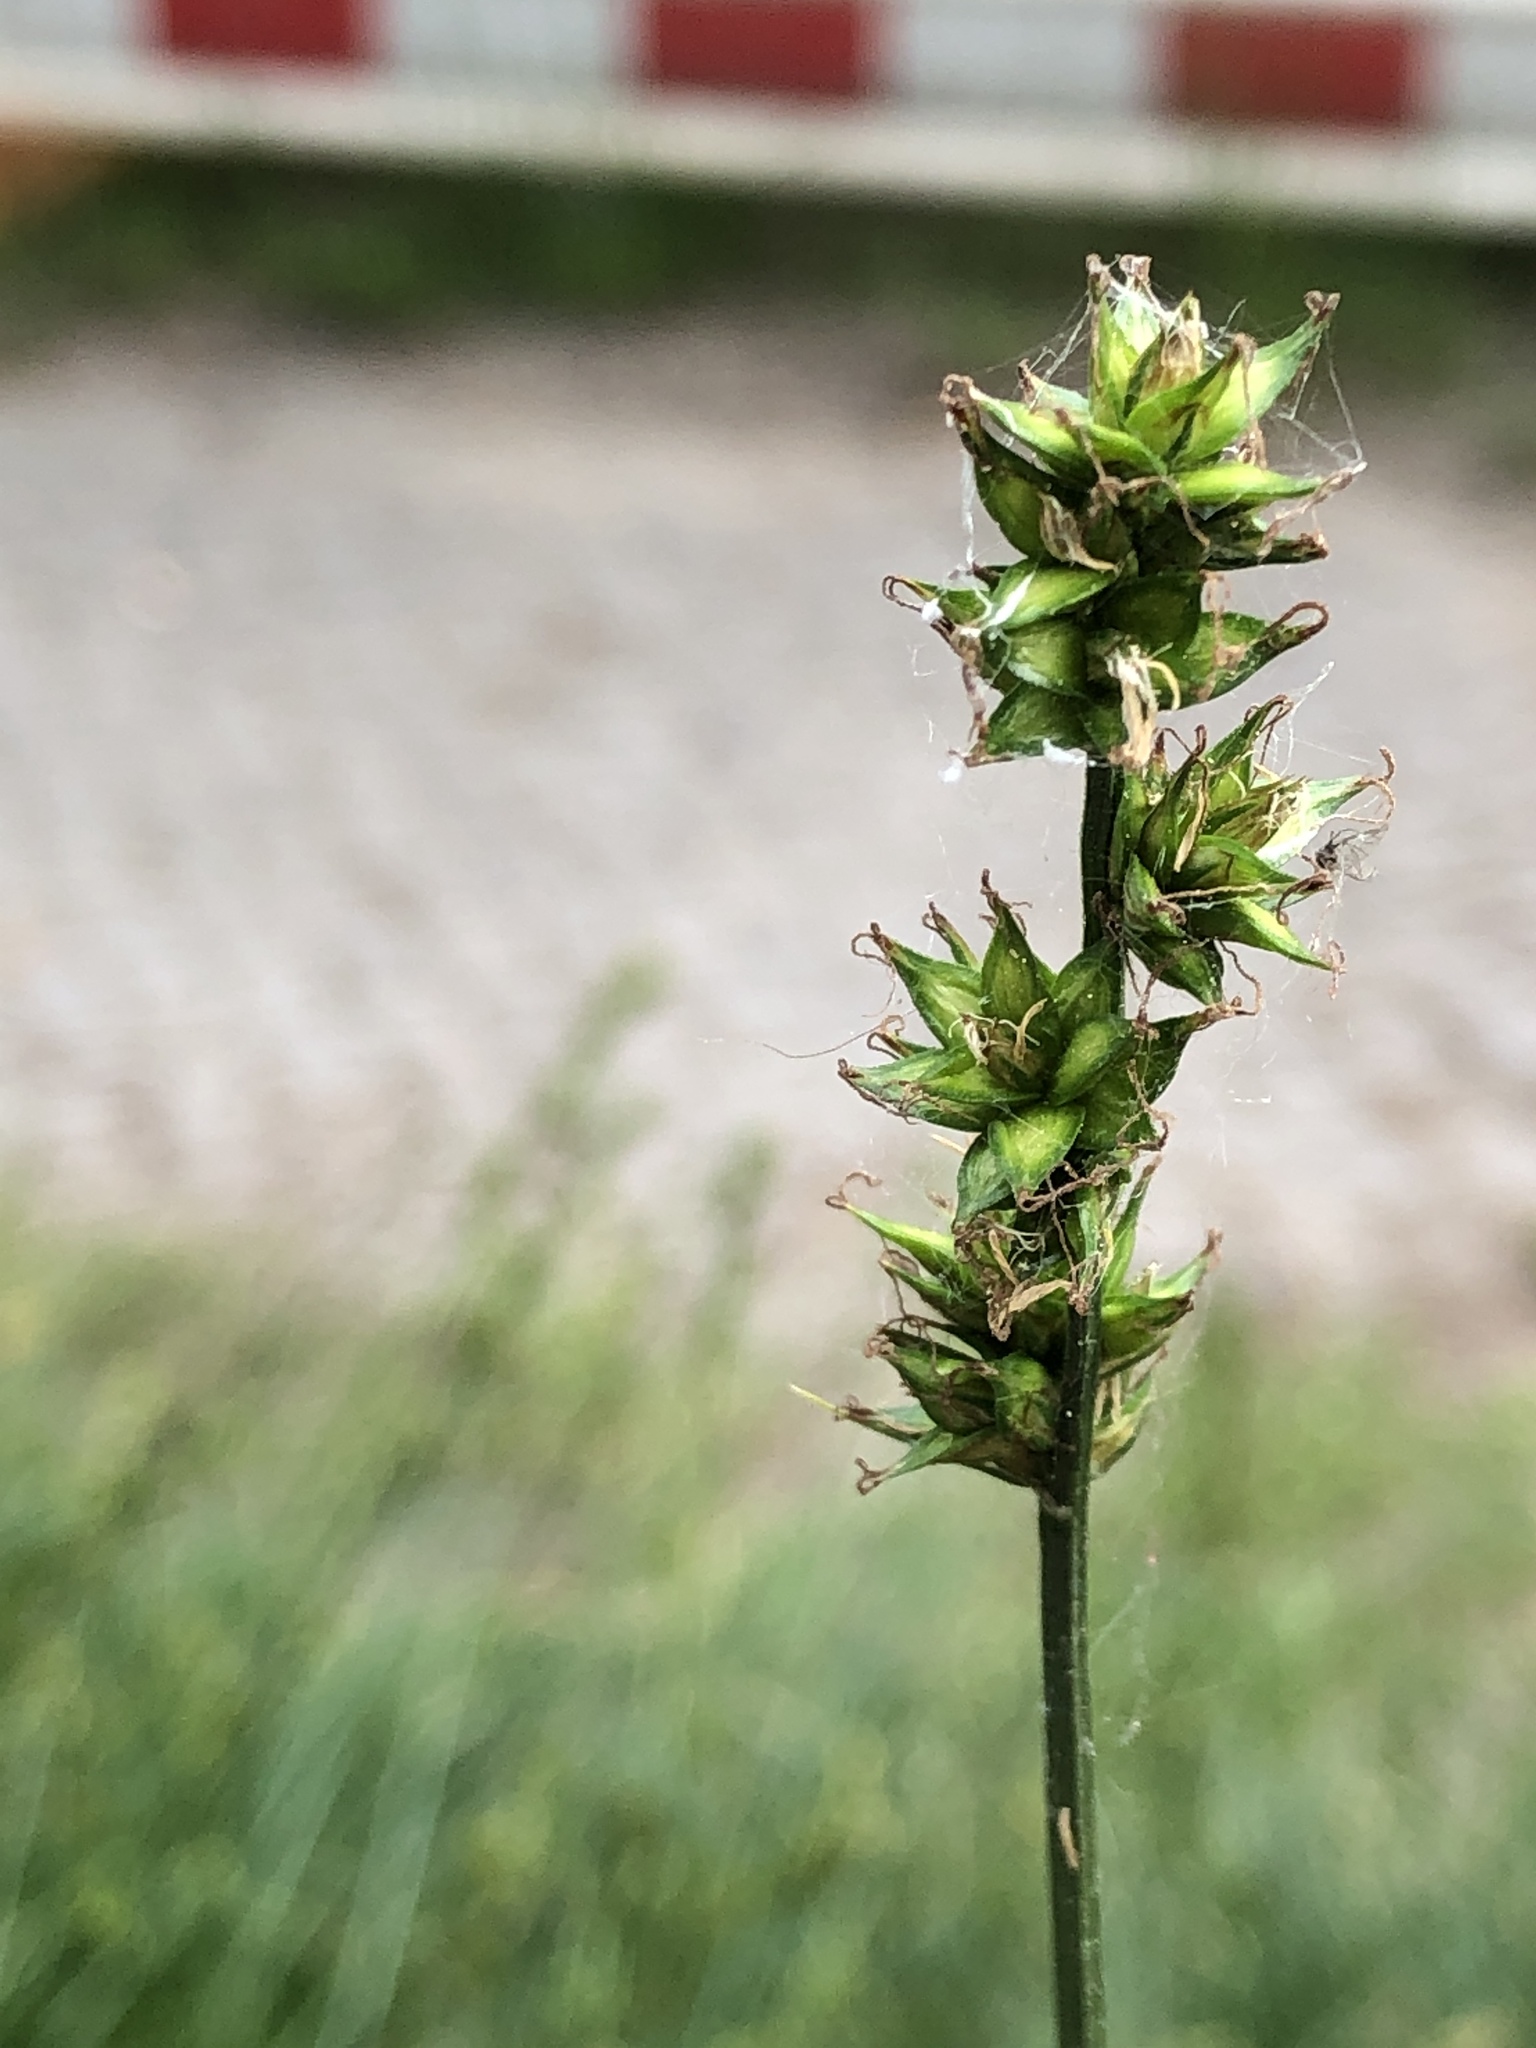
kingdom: Plantae
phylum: Tracheophyta
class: Liliopsida
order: Poales
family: Cyperaceae
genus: Carex
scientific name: Carex muricata
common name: Rough sedge
